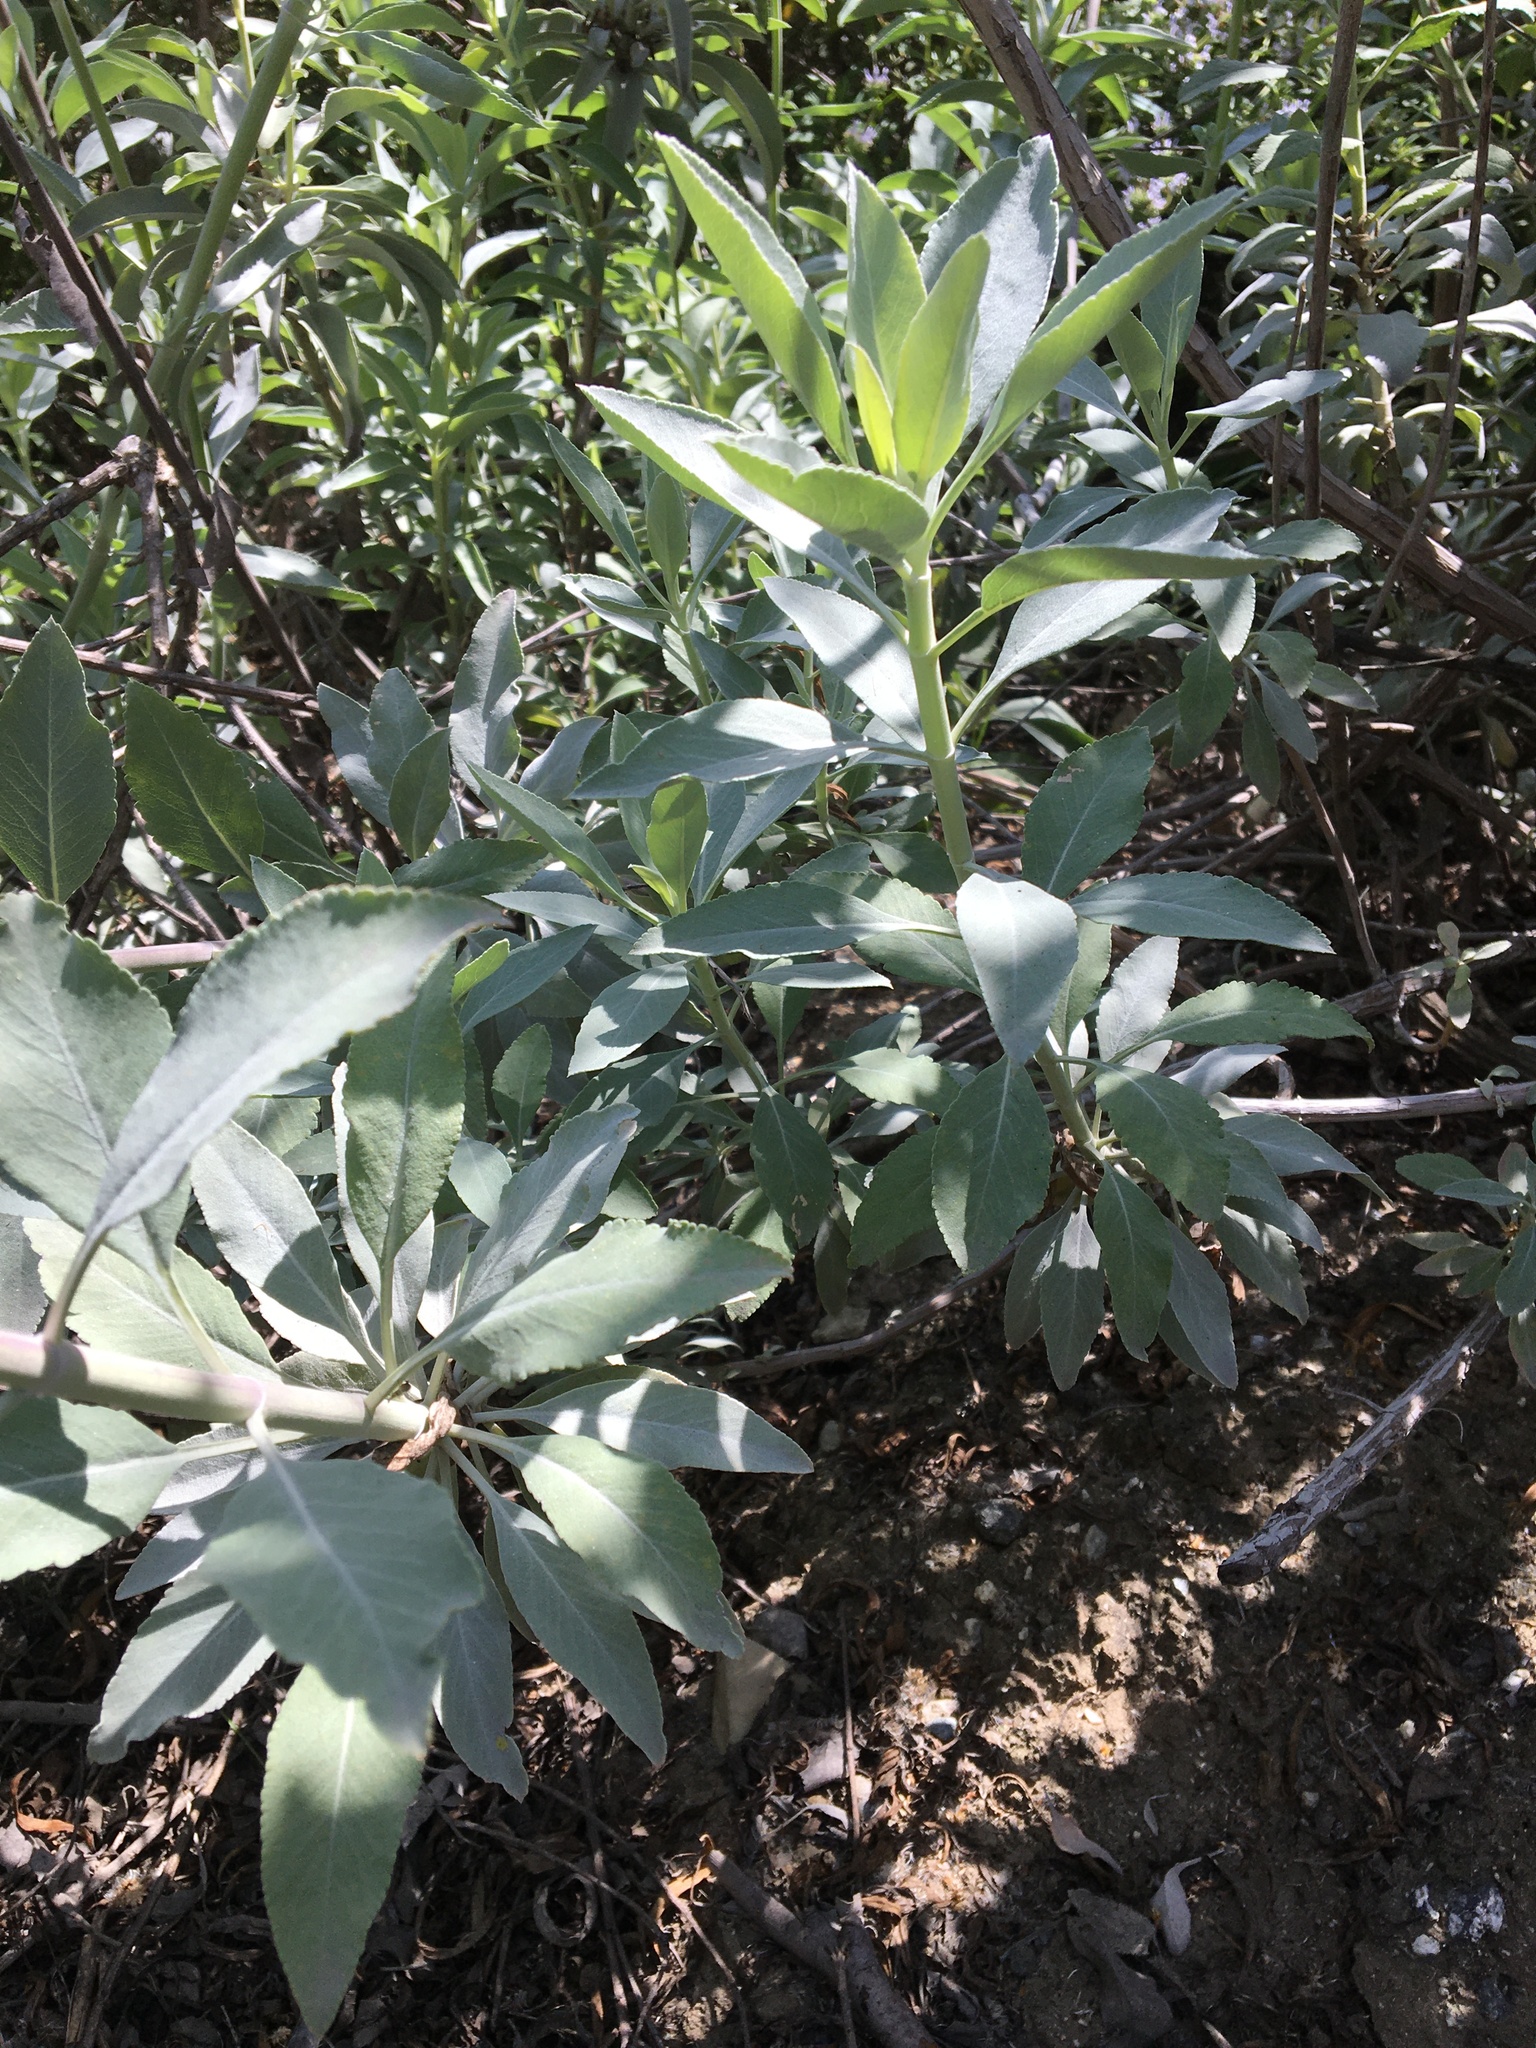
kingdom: Plantae
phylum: Tracheophyta
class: Magnoliopsida
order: Lamiales
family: Lamiaceae
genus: Salvia
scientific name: Salvia apiana
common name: White sage
